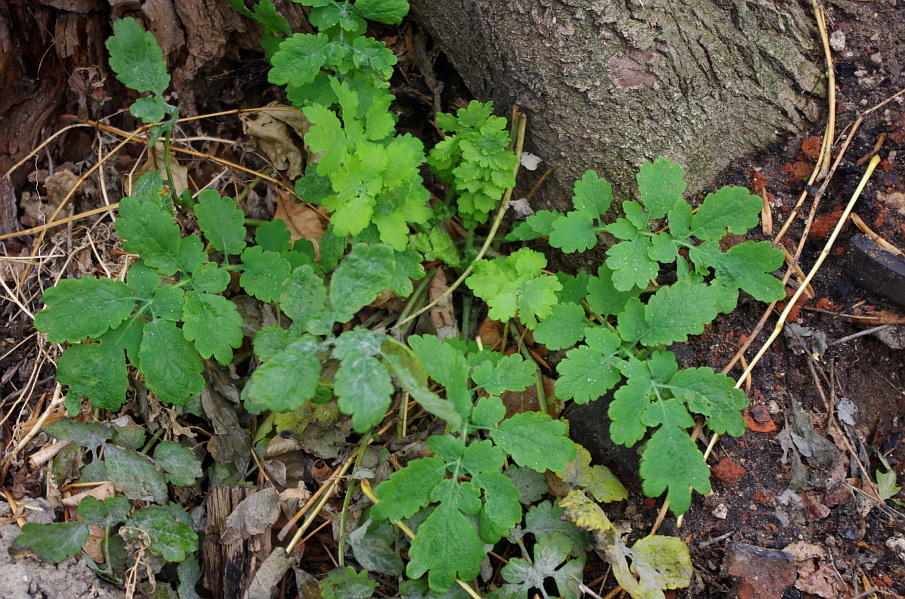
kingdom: Plantae
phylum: Tracheophyta
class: Magnoliopsida
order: Ranunculales
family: Papaveraceae
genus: Chelidonium
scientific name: Chelidonium majus
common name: Greater celandine
